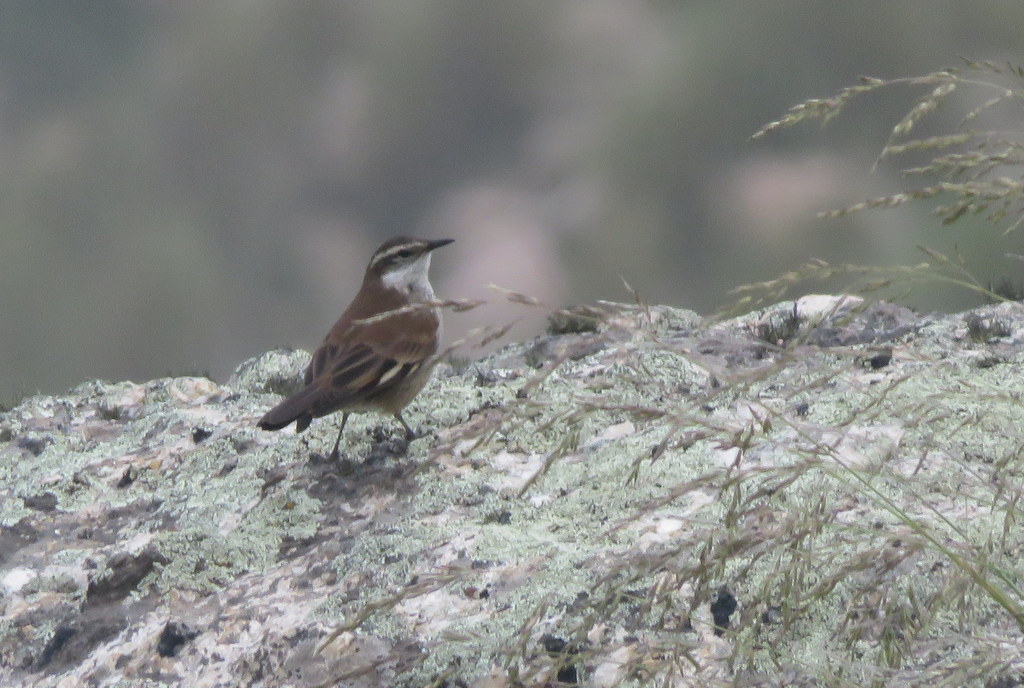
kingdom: Animalia
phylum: Chordata
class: Aves
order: Passeriformes
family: Furnariidae
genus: Cinclodes
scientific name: Cinclodes fuscus
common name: Buff-winged cinclodes
